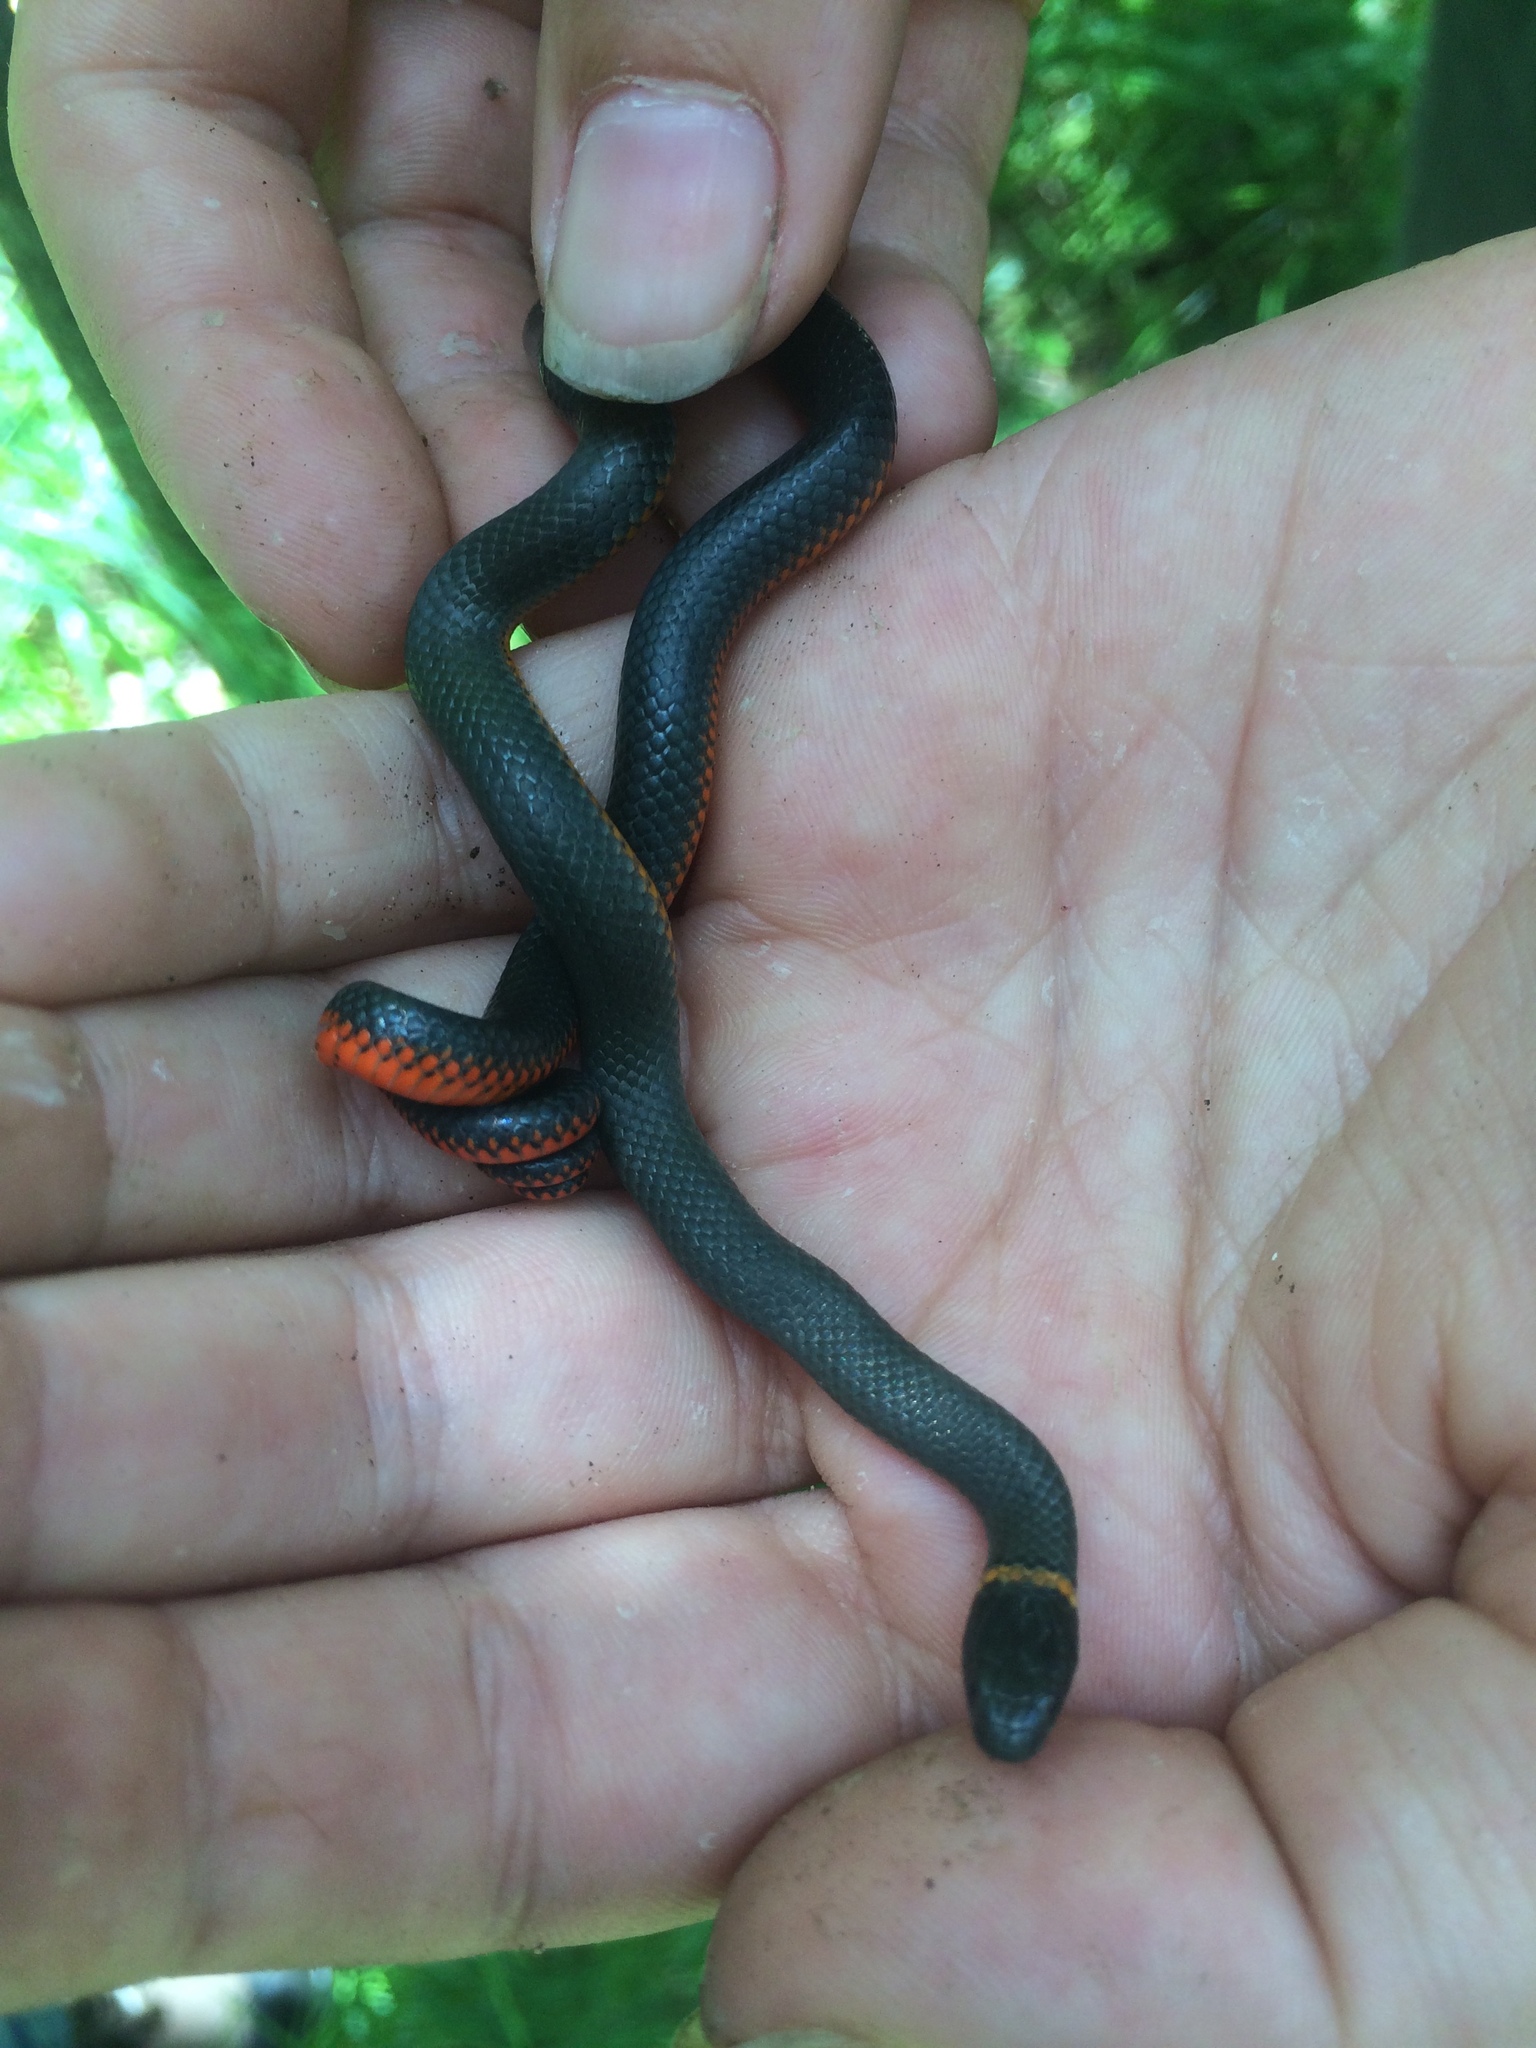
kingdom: Animalia
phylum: Chordata
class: Squamata
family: Colubridae
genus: Diadophis
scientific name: Diadophis punctatus
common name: Ringneck snake
